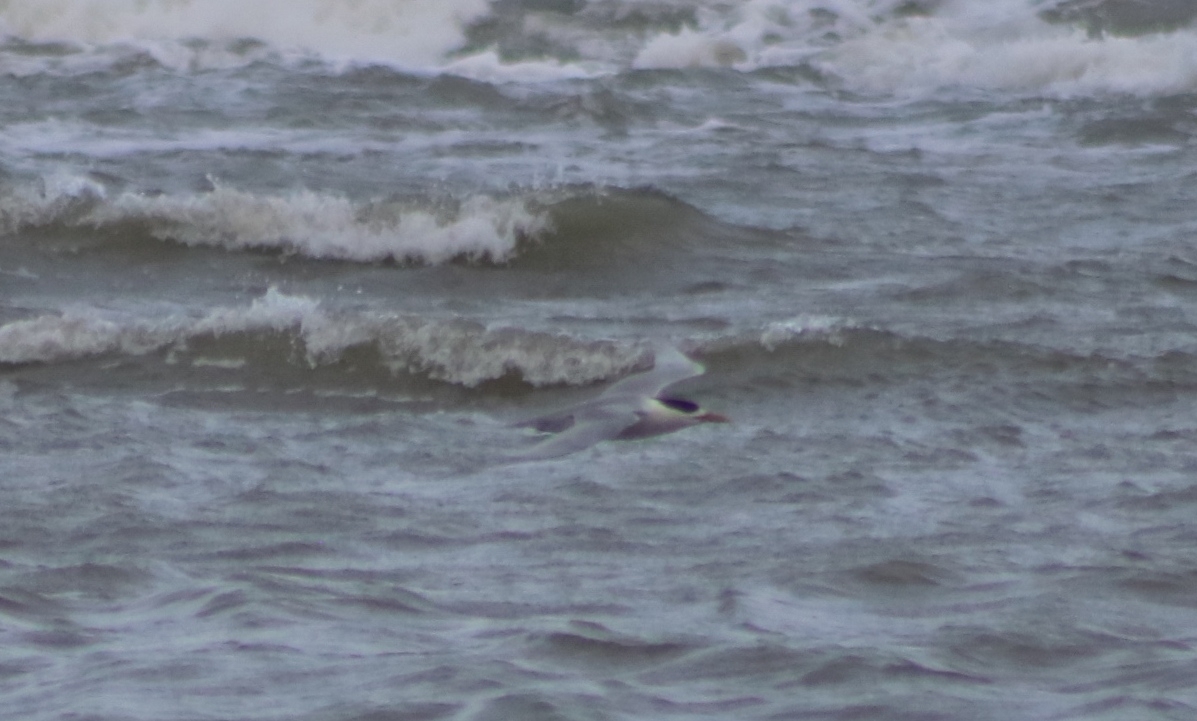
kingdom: Animalia
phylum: Chordata
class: Aves
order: Charadriiformes
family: Laridae
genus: Thalasseus
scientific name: Thalasseus bergii
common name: Greater crested tern
